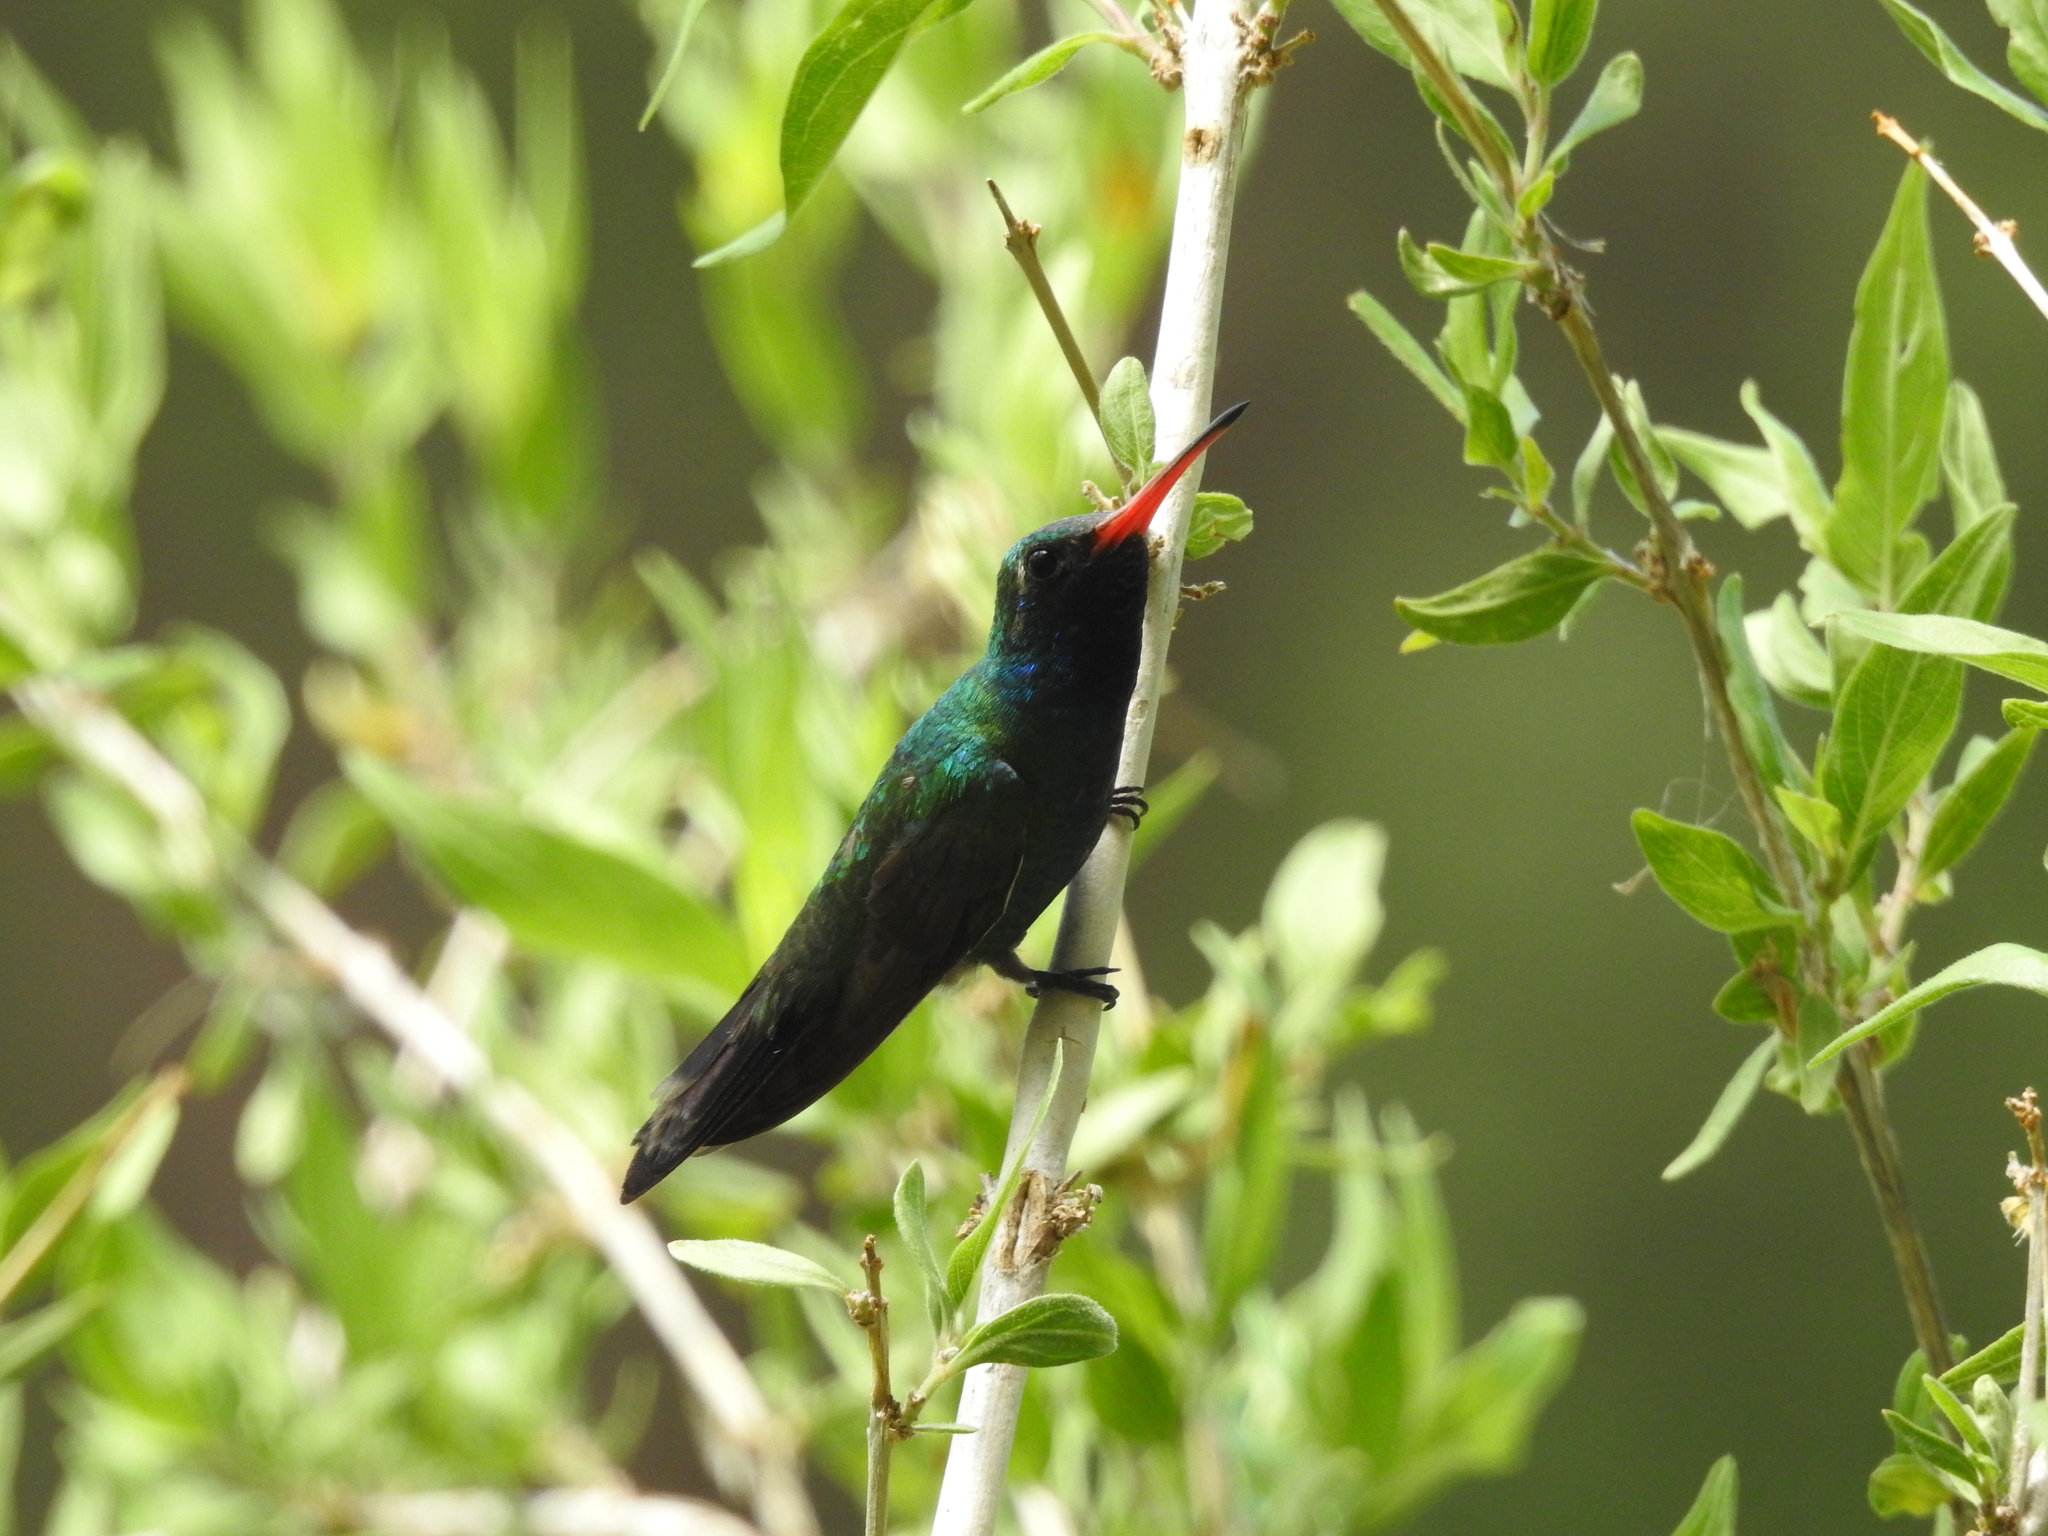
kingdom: Animalia
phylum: Chordata
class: Aves
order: Apodiformes
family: Trochilidae
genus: Cynanthus
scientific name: Cynanthus latirostris
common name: Broad-billed hummingbird
